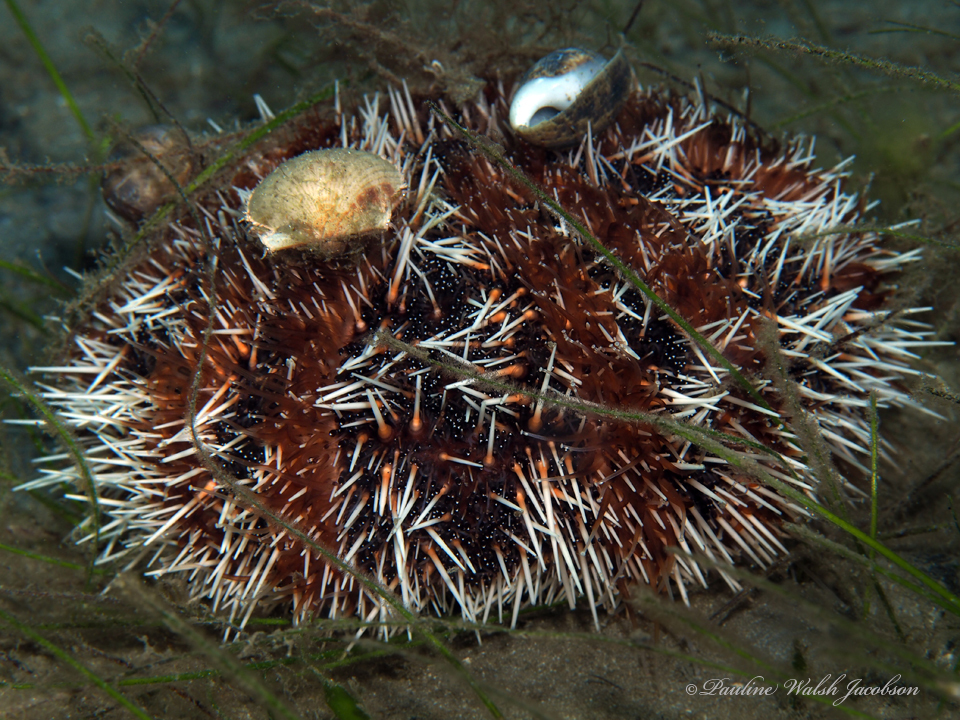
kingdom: Animalia
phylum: Echinodermata
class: Echinoidea
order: Camarodonta
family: Toxopneustidae
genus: Tripneustes
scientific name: Tripneustes ventricosus
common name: West indian sea egg
